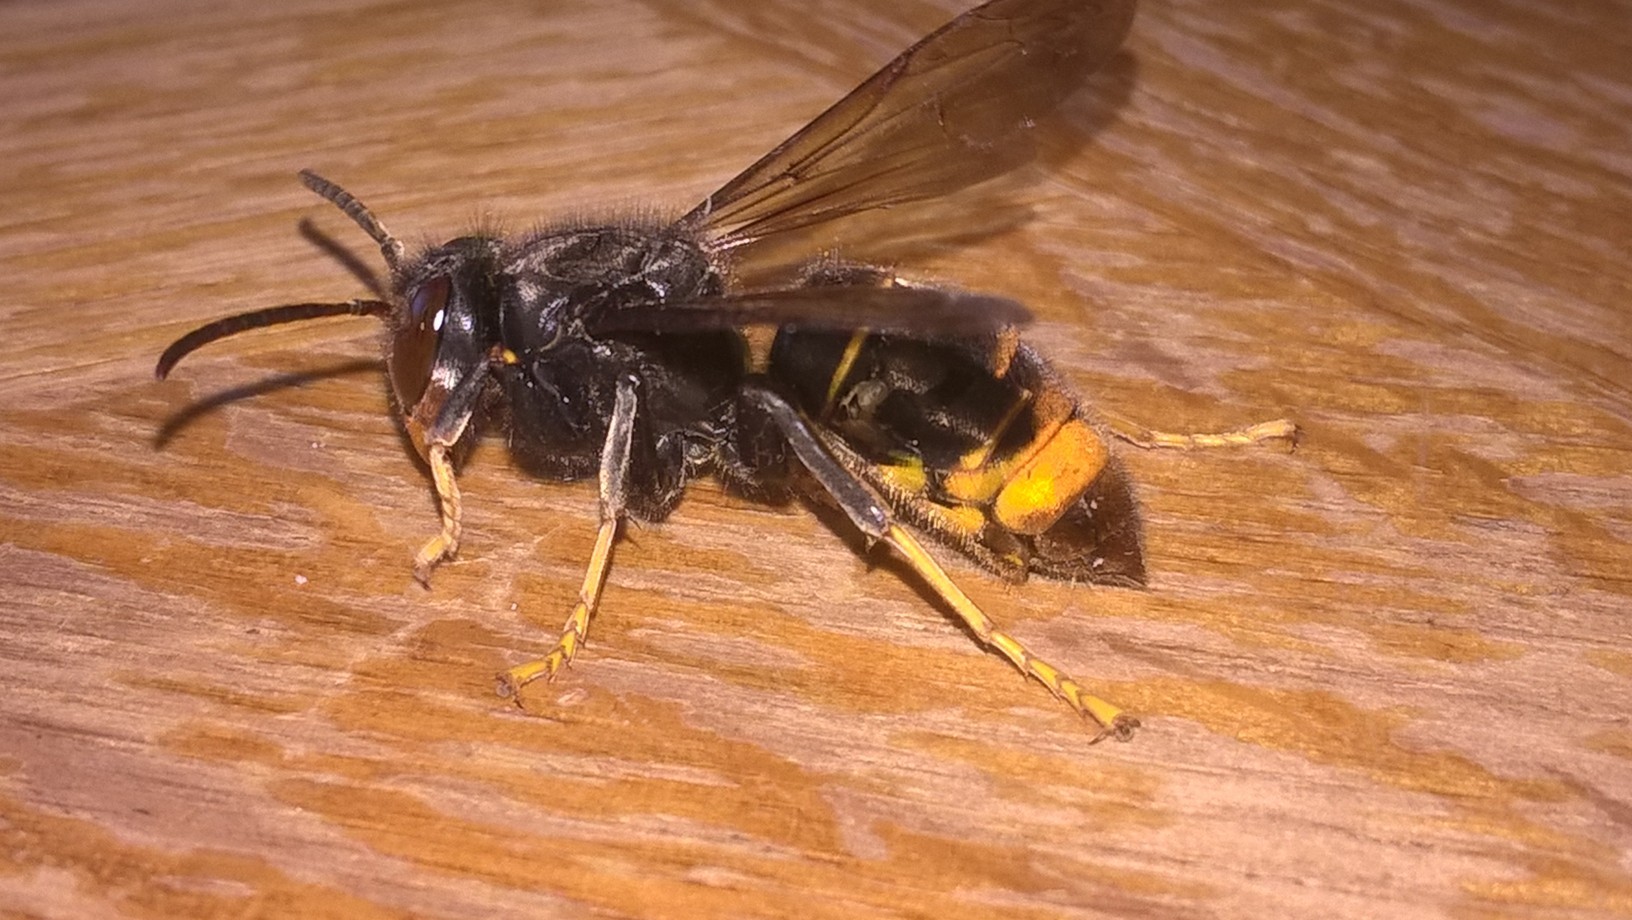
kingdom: Animalia
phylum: Arthropoda
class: Insecta
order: Hymenoptera
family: Vespidae
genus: Vespa
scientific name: Vespa velutina
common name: Asian hornet
